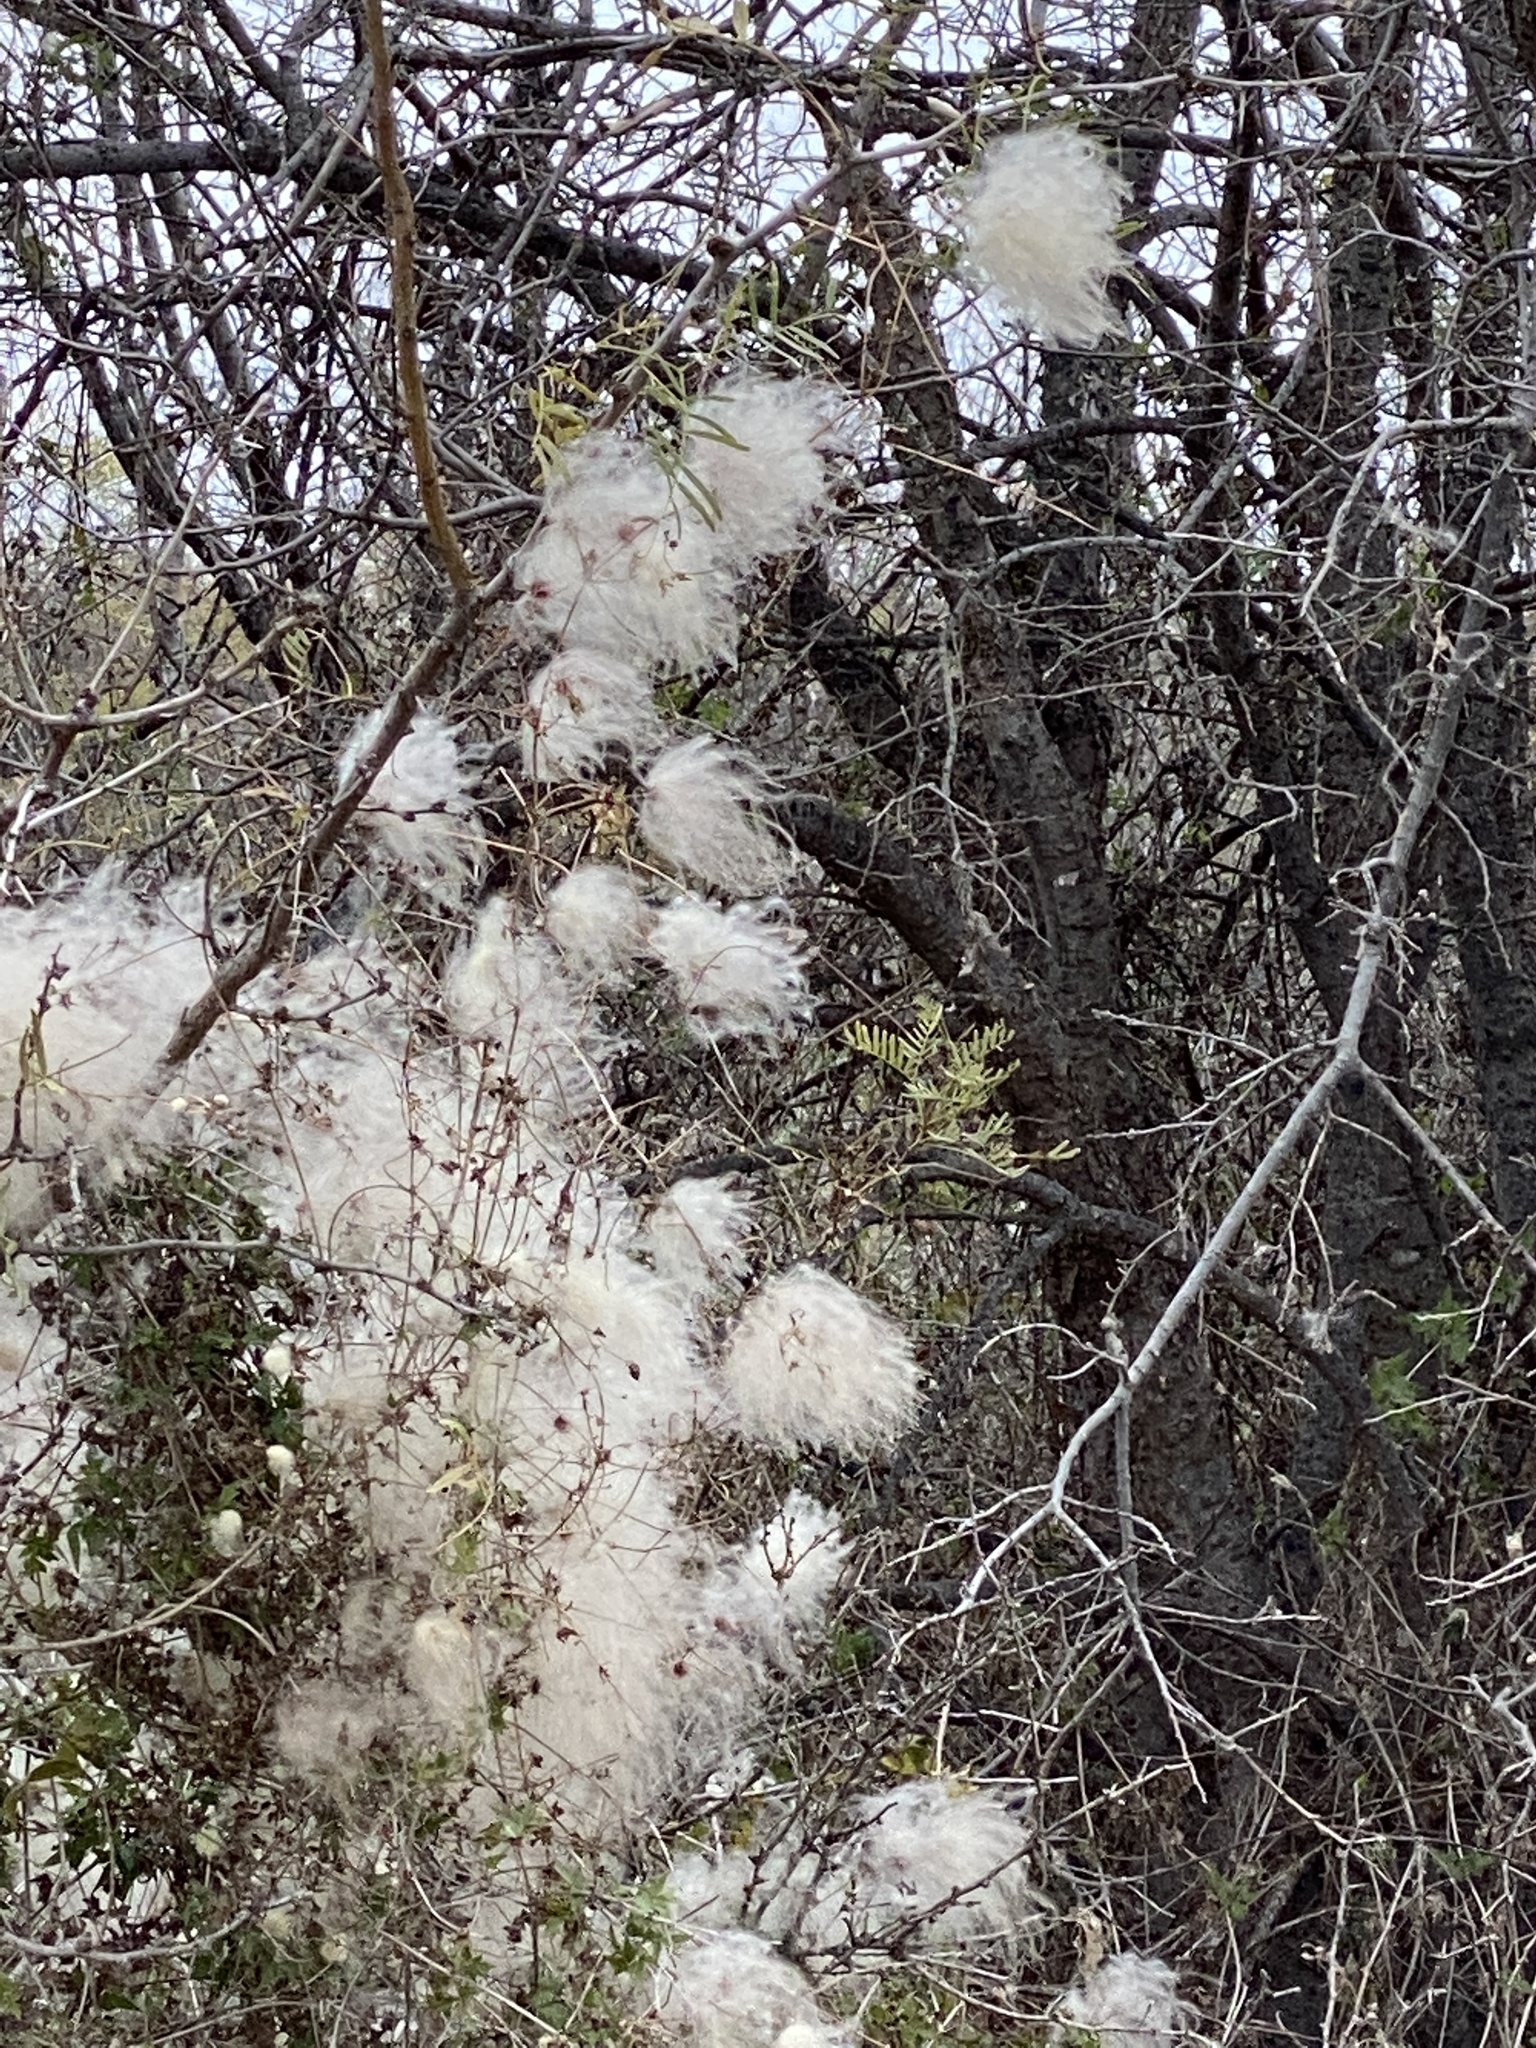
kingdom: Plantae
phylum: Tracheophyta
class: Magnoliopsida
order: Ranunculales
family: Ranunculaceae
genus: Clematis
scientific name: Clematis drummondii
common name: Texas virgin's bower
